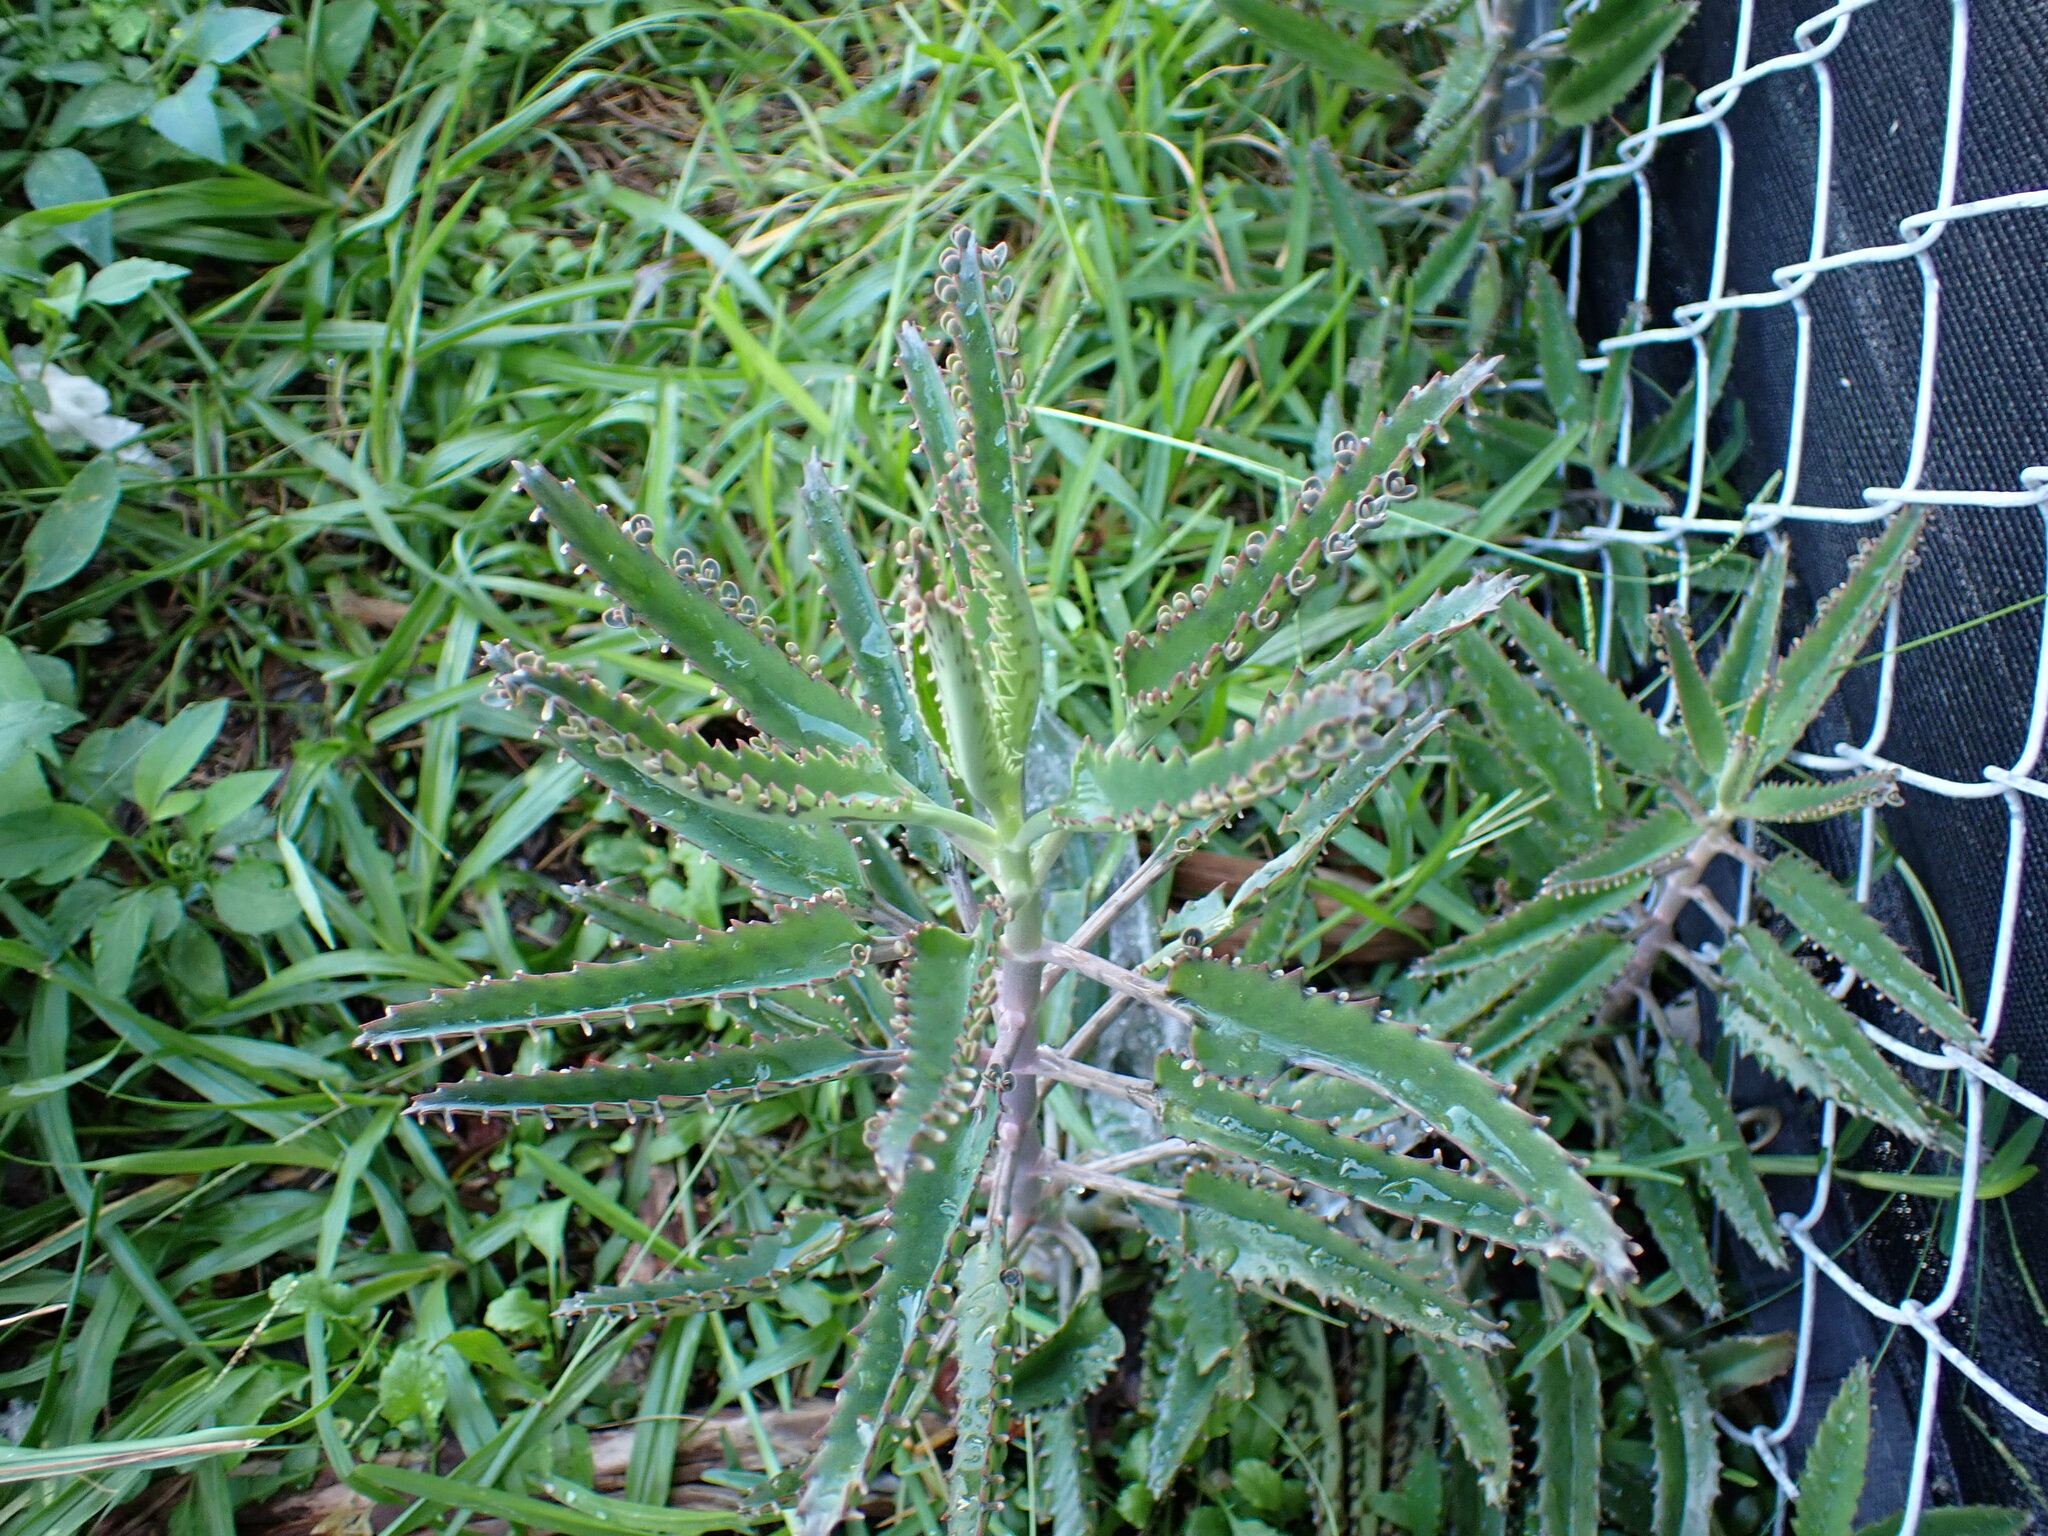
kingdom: Plantae
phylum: Tracheophyta
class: Magnoliopsida
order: Saxifragales
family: Crassulaceae
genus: Kalanchoe
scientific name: Kalanchoe houghtonii
